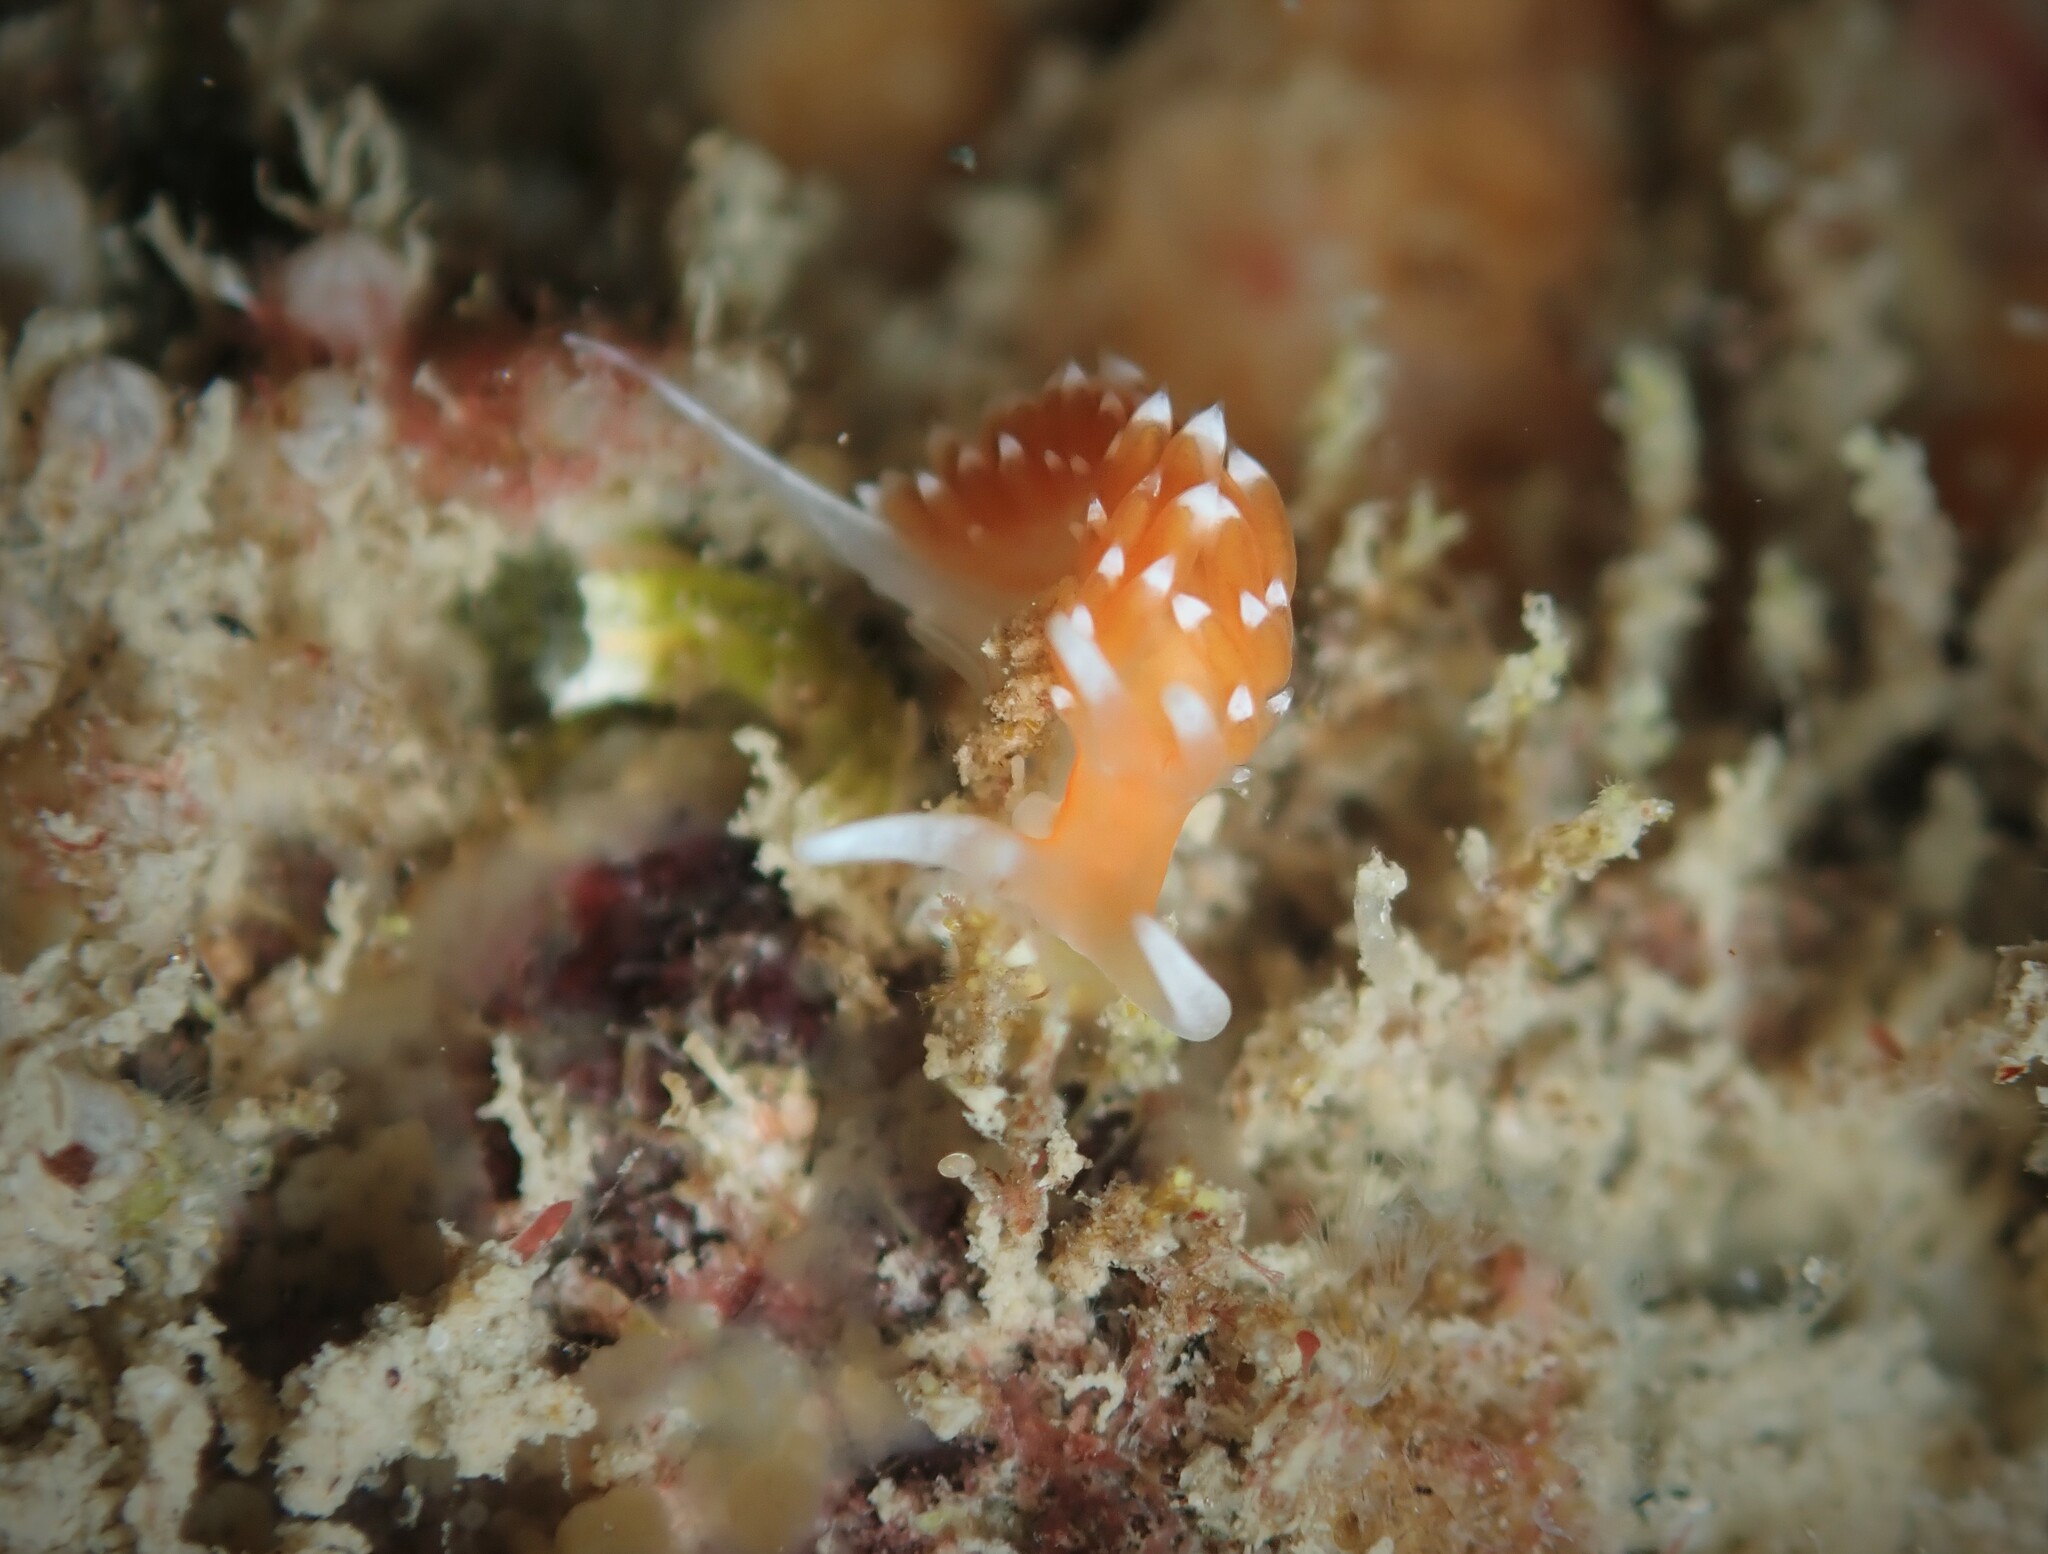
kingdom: Animalia
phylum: Mollusca
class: Gastropoda
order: Nudibranchia
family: Facelinidae
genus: Phidiana
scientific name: Phidiana milleri
